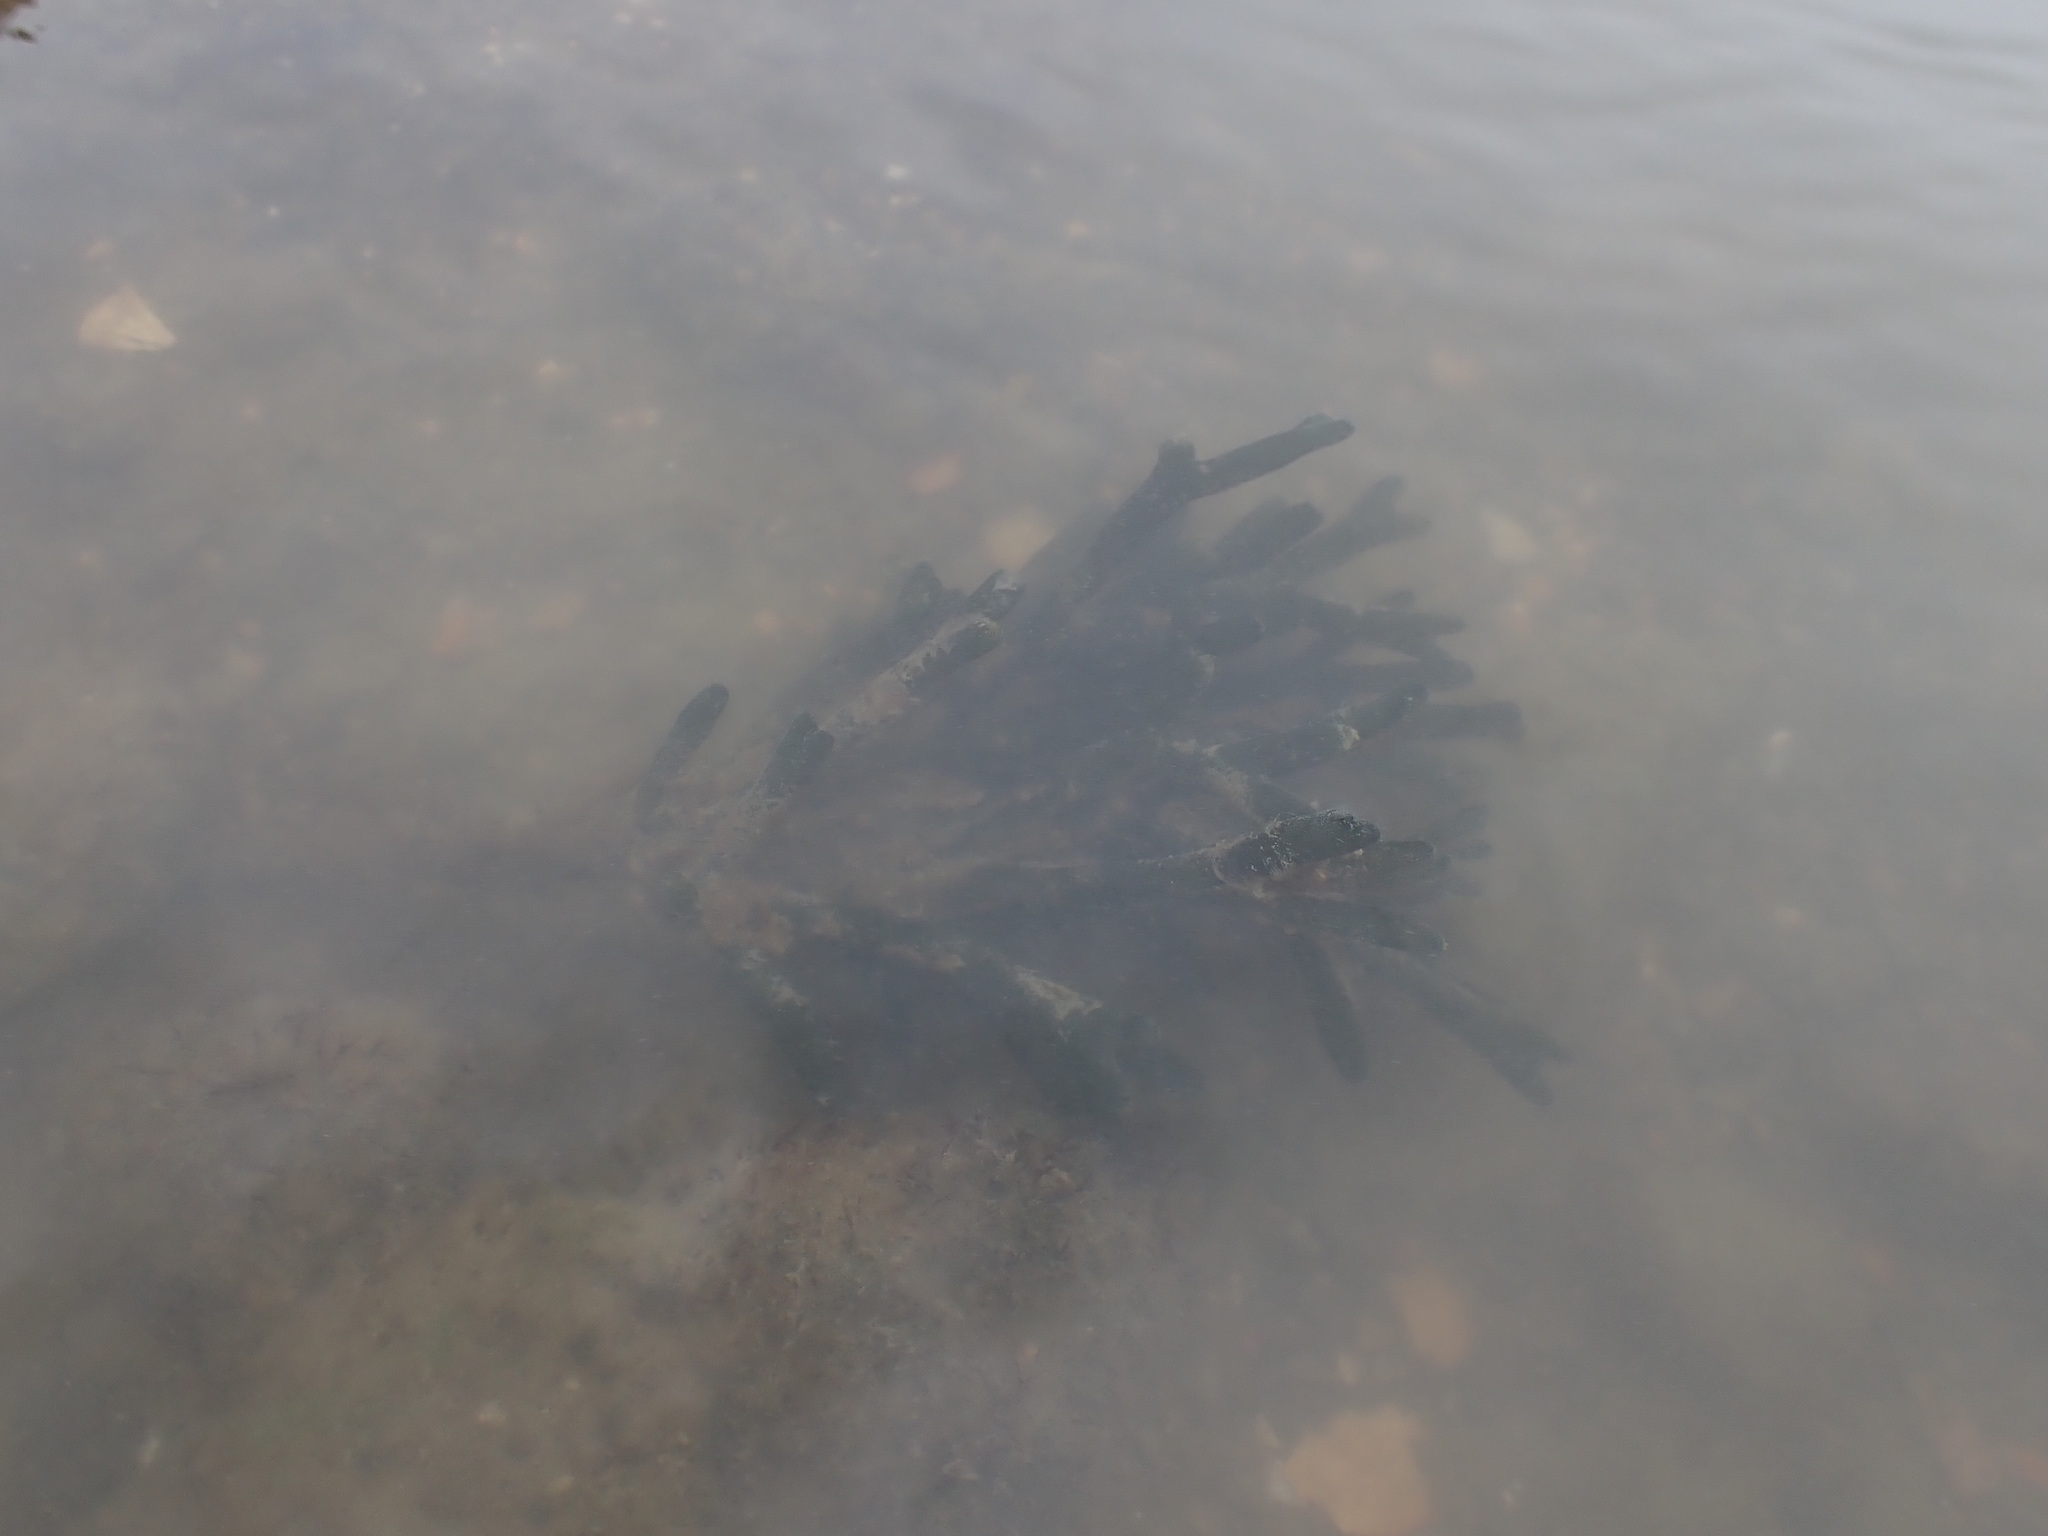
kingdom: Plantae
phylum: Chlorophyta
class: Ulvophyceae
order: Bryopsidales
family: Codiaceae
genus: Codium
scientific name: Codium fragile
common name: Dead man's fingers
